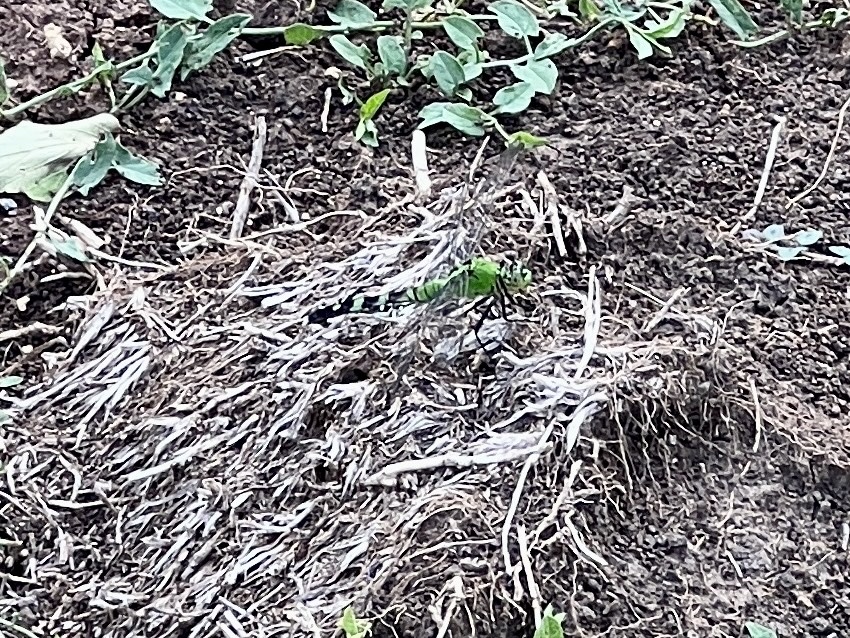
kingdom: Animalia
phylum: Arthropoda
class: Insecta
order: Odonata
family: Libellulidae
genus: Erythemis
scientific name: Erythemis simplicicollis
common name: Eastern pondhawk
